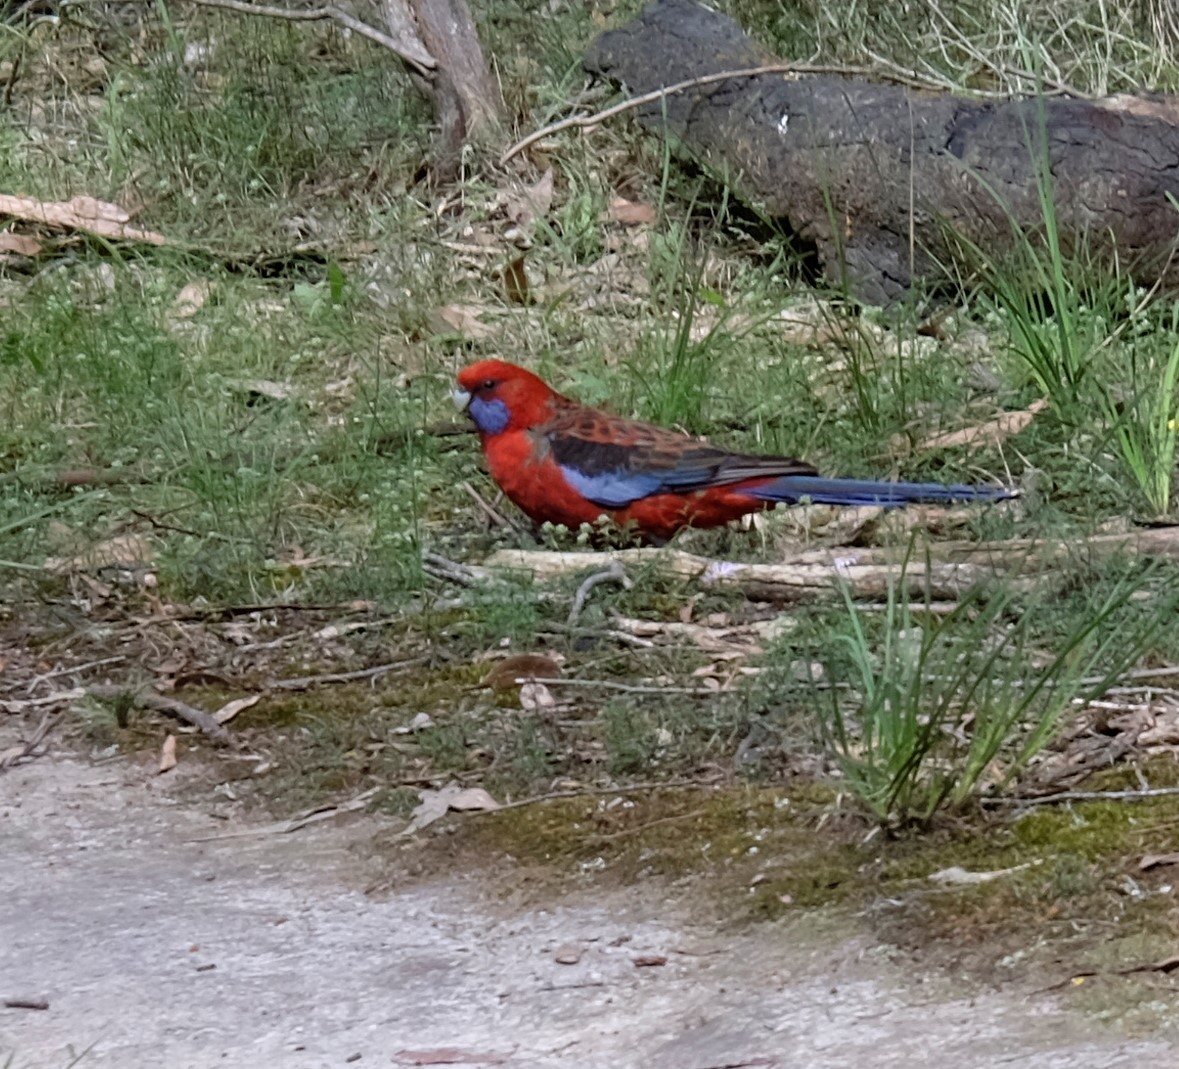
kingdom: Animalia
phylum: Chordata
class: Aves
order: Psittaciformes
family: Psittacidae
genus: Platycercus
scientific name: Platycercus elegans
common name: Crimson rosella
